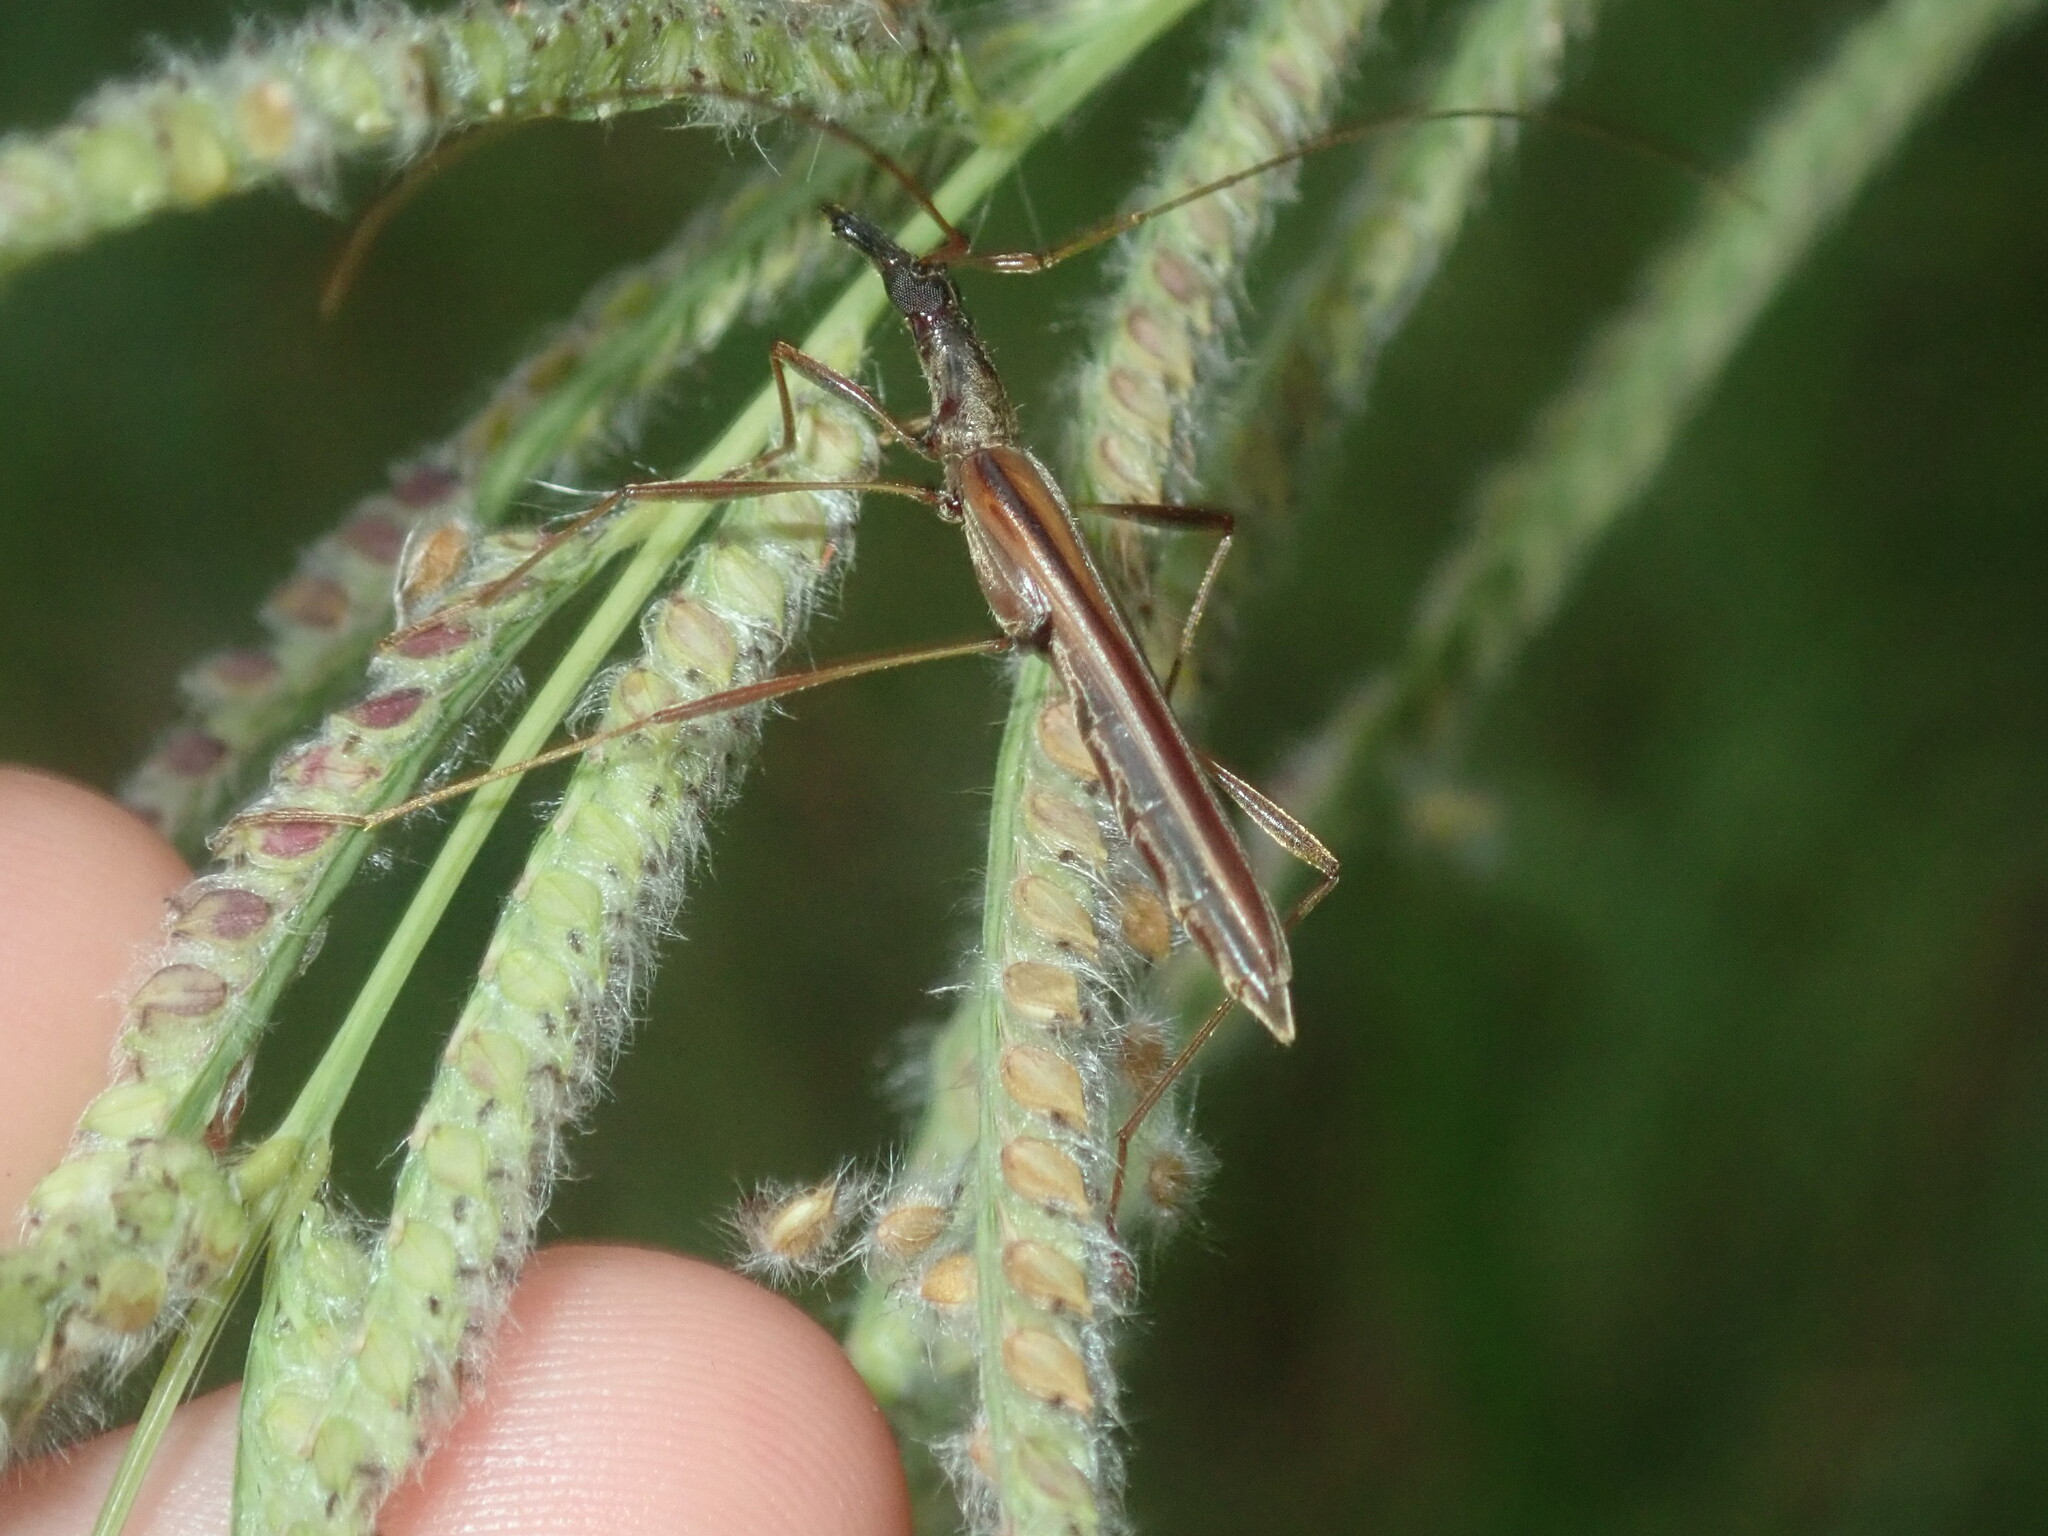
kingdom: Animalia
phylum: Arthropoda
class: Insecta
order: Coleoptera
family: Cerambycidae
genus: Rhinophthalmus
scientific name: Rhinophthalmus nasutus
